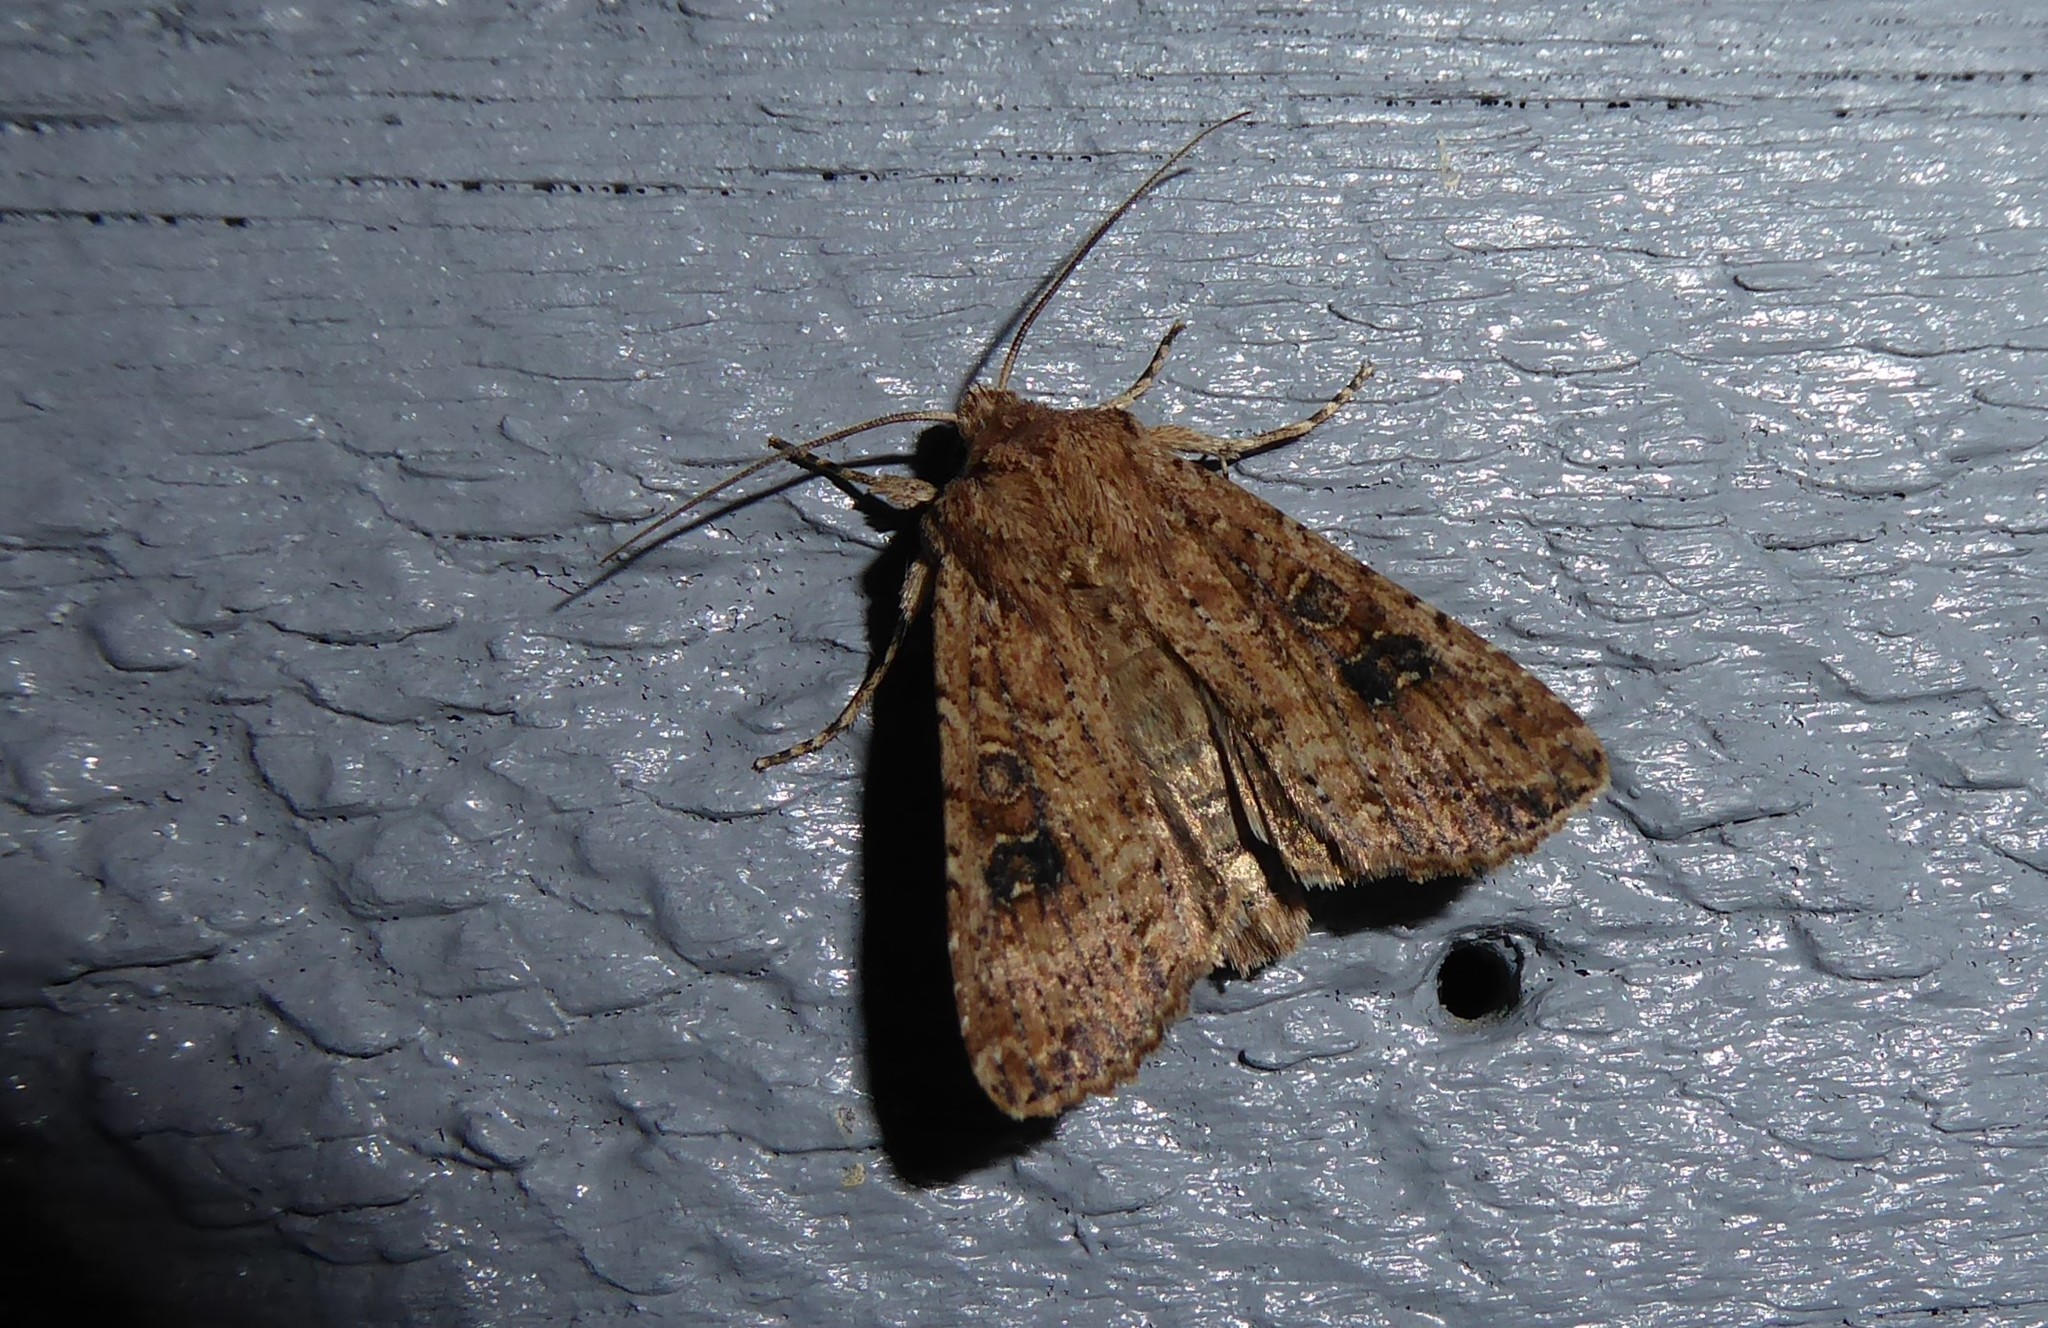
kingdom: Animalia
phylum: Arthropoda
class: Insecta
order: Lepidoptera
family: Noctuidae
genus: Ichneutica
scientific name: Ichneutica morosa
